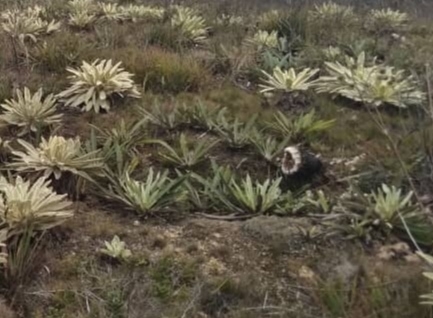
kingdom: Plantae
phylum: Tracheophyta
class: Magnoliopsida
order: Asterales
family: Asteraceae
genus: Espeletia
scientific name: Espeletia bracteosa
